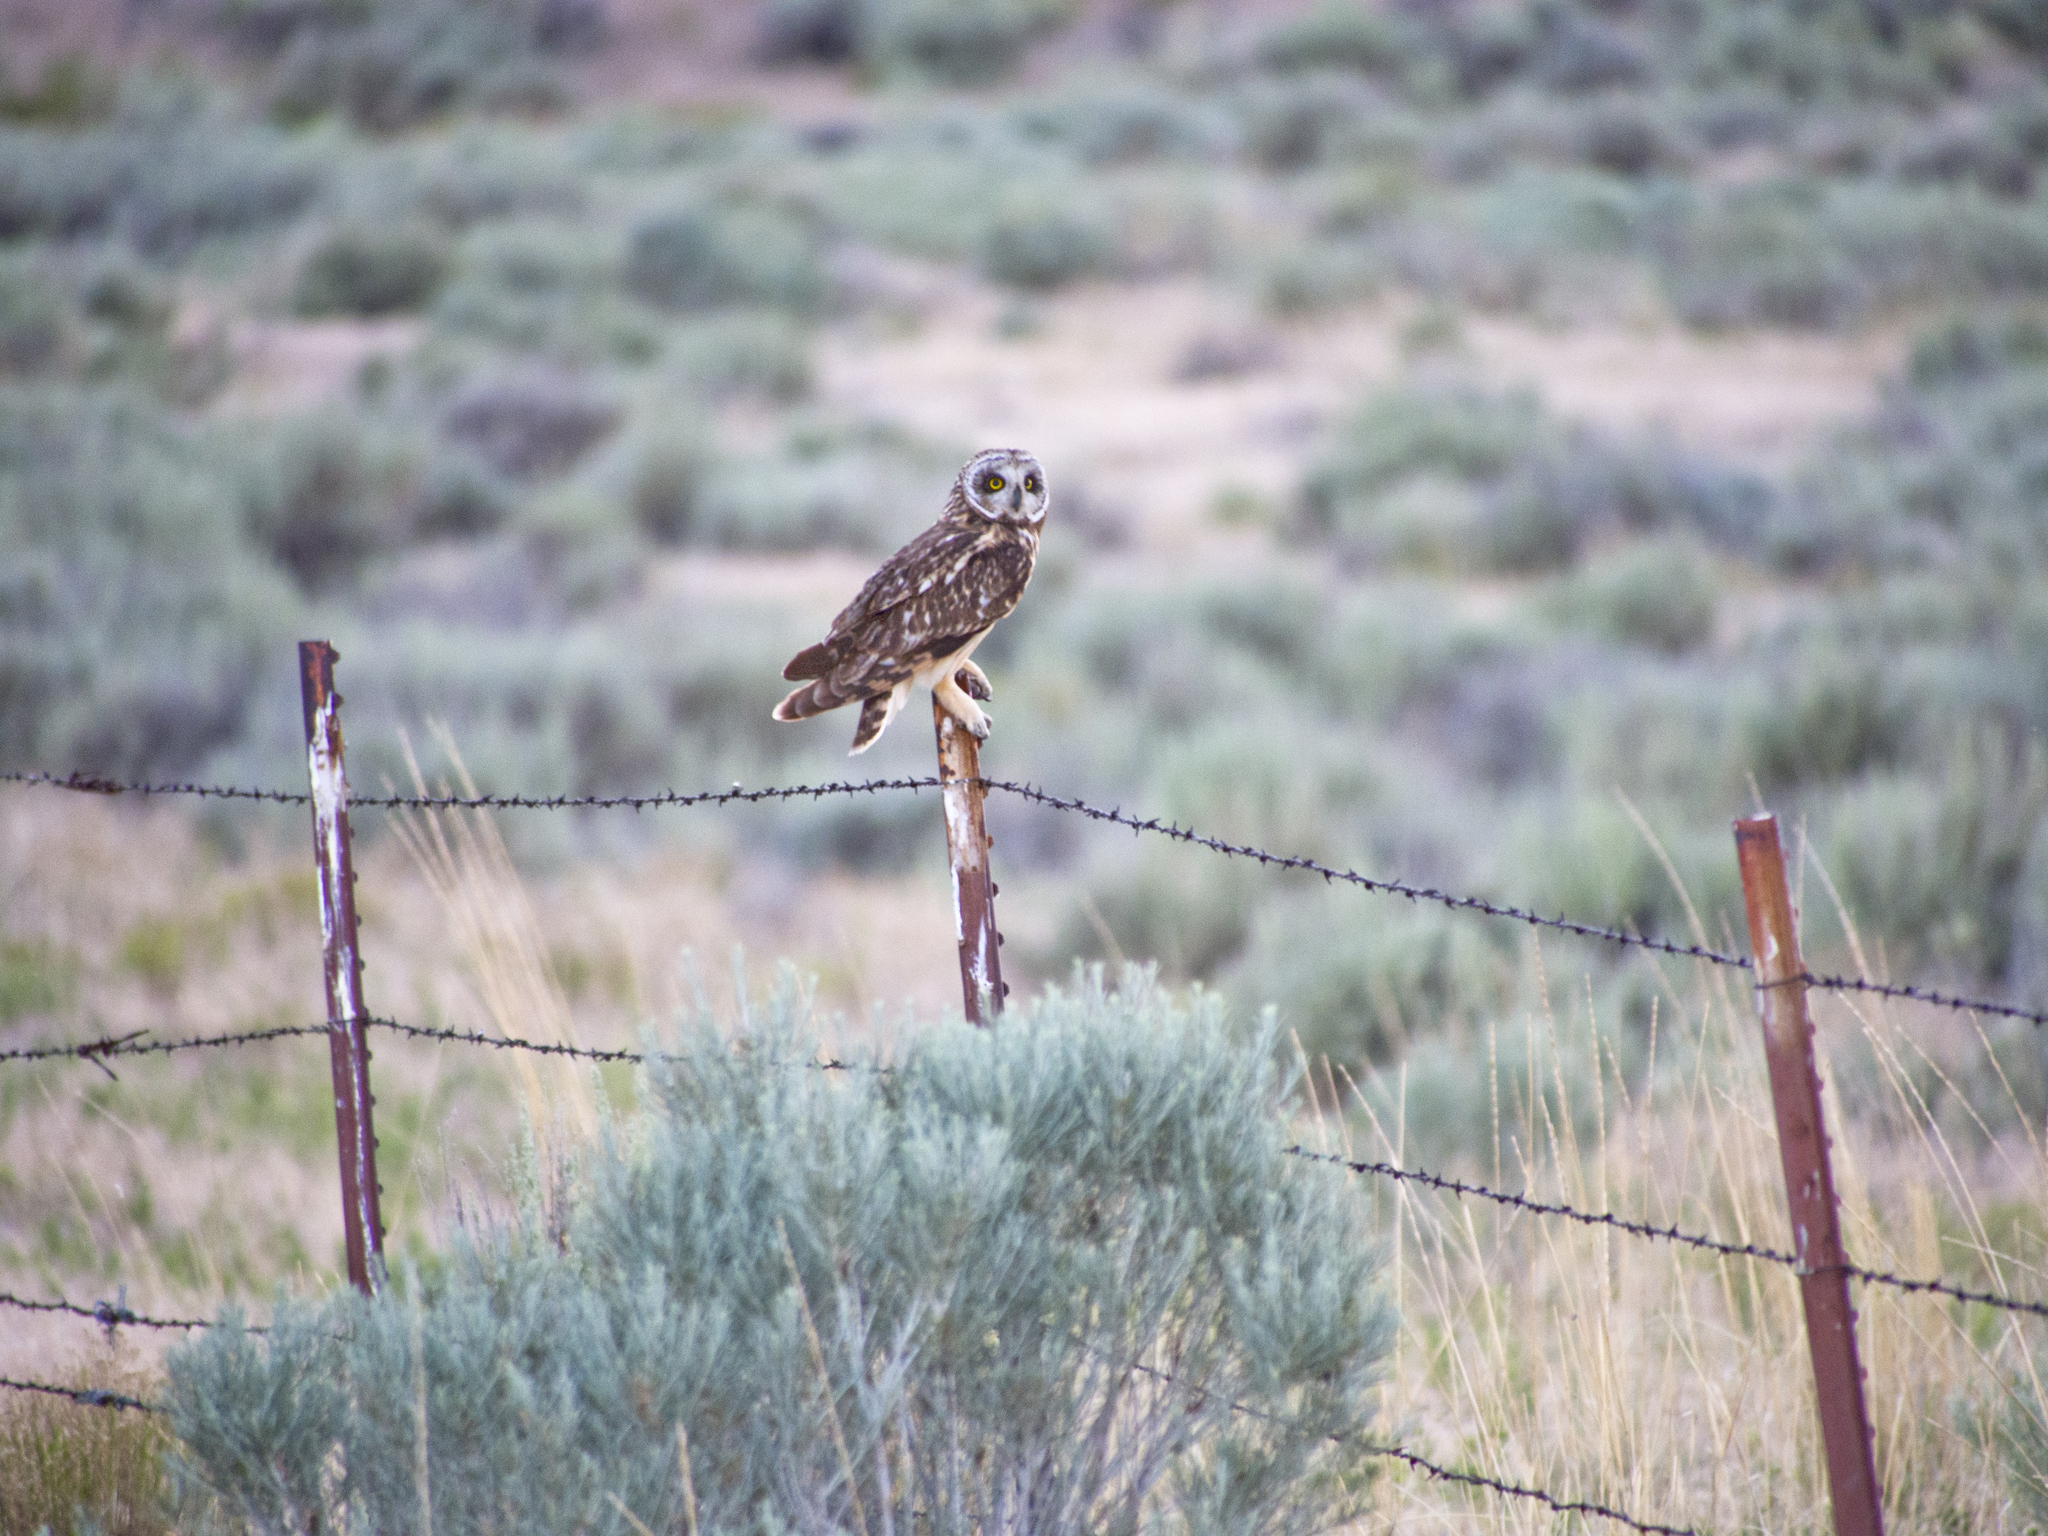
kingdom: Animalia
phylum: Chordata
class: Aves
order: Strigiformes
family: Strigidae
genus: Asio
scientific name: Asio flammeus
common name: Short-eared owl
